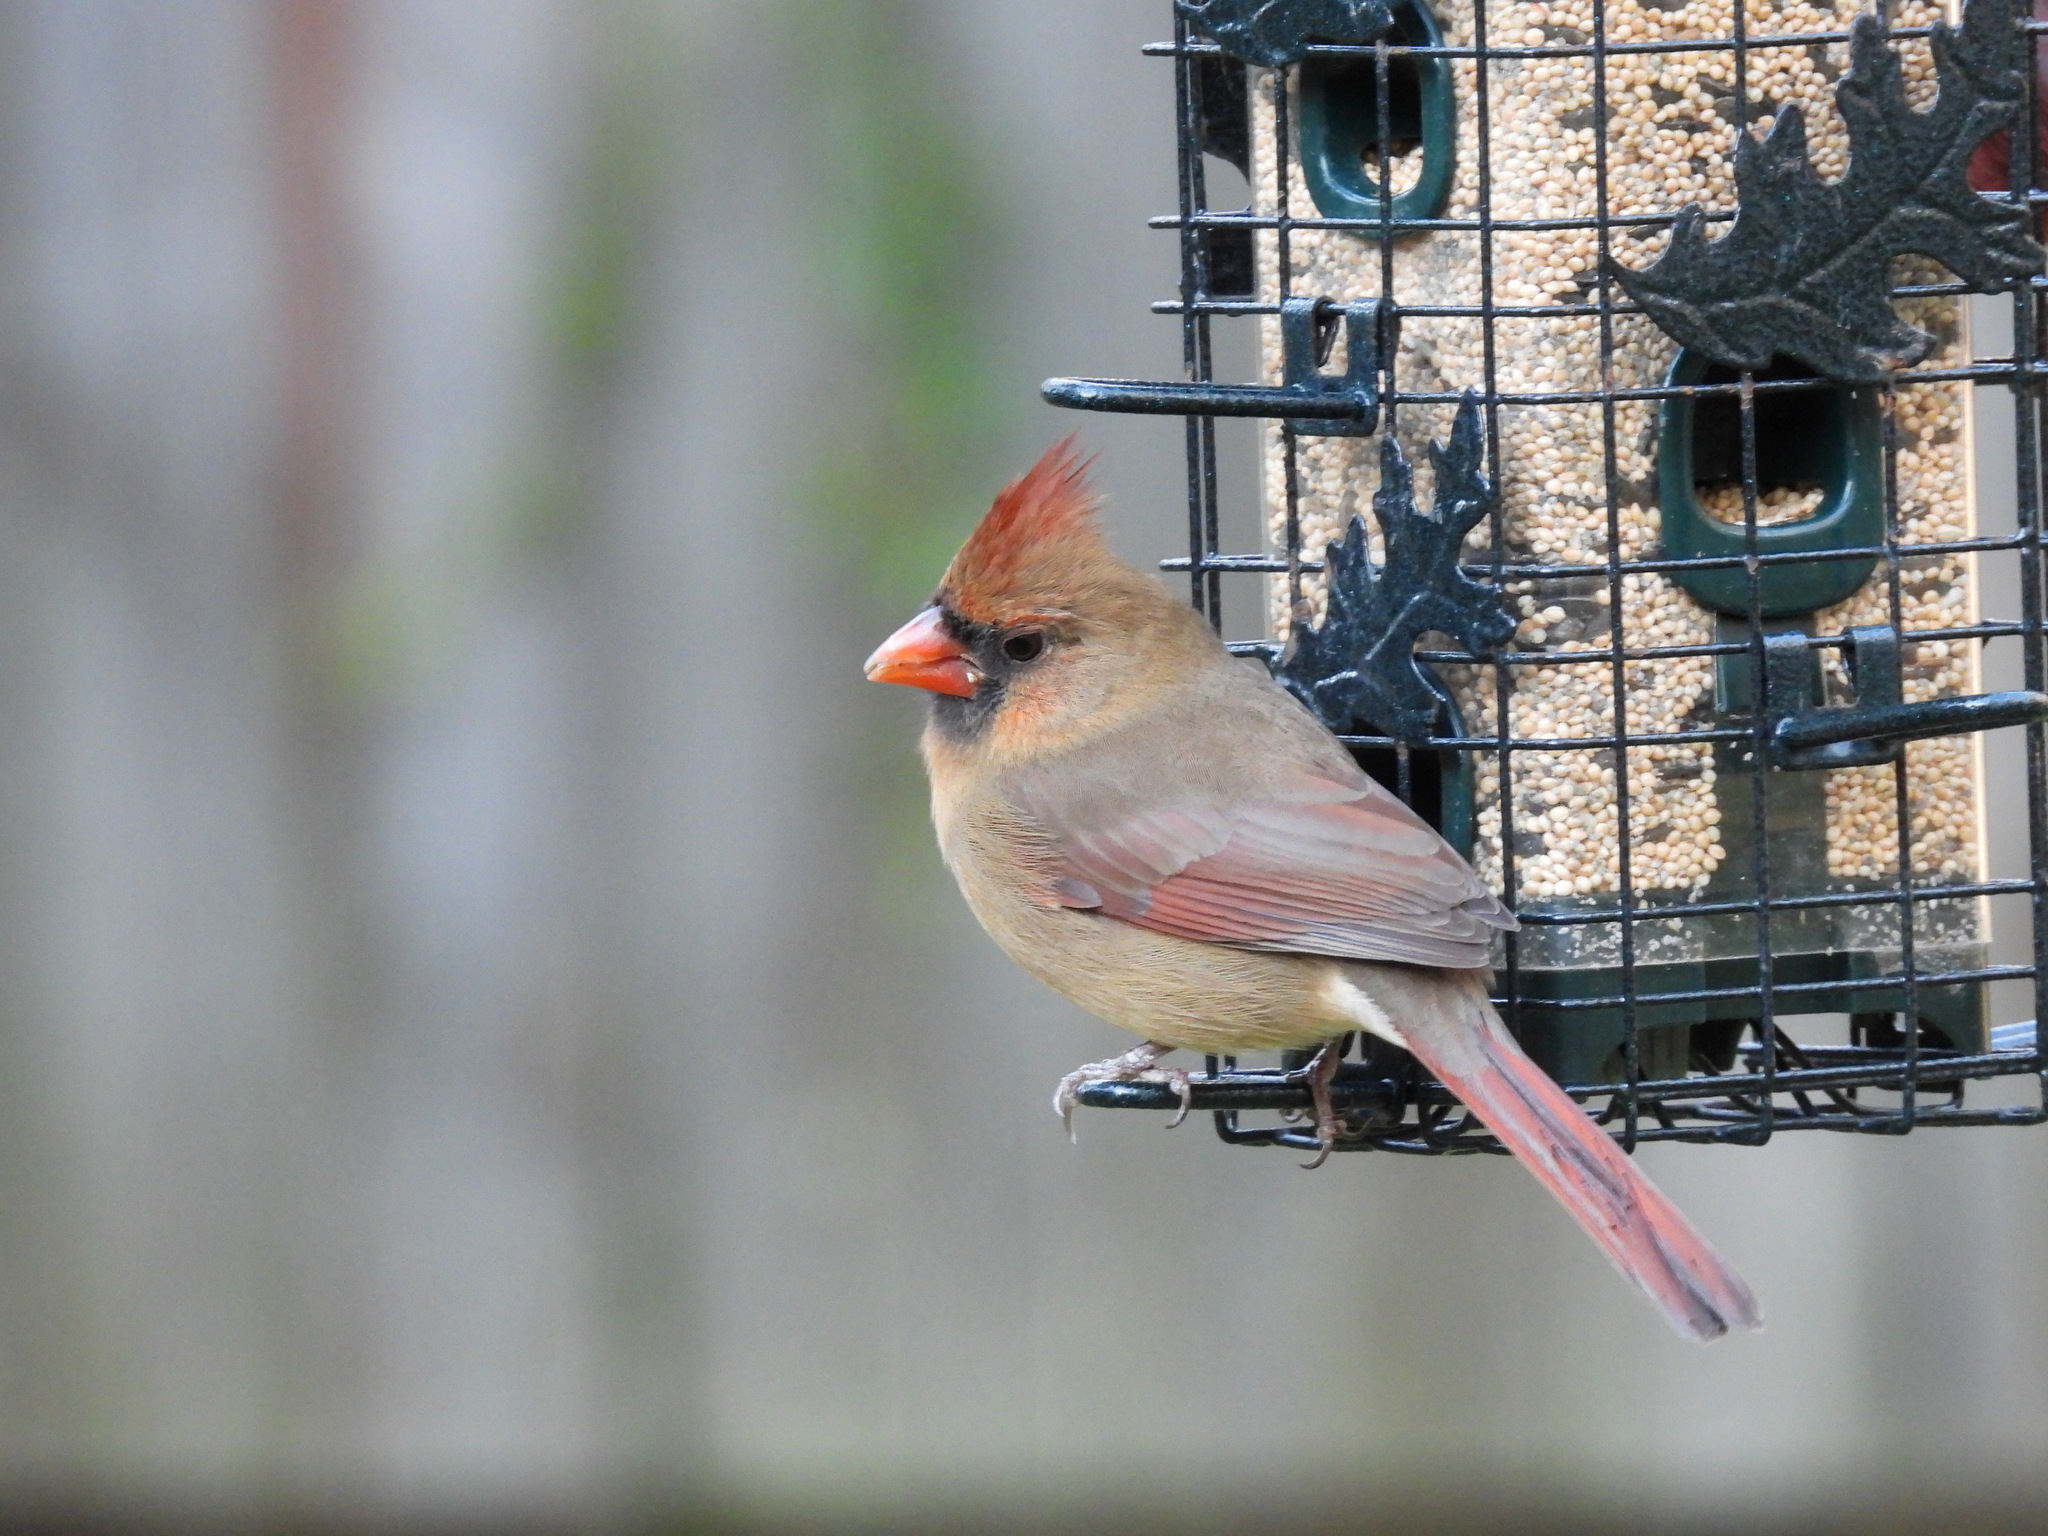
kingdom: Animalia
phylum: Chordata
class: Aves
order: Passeriformes
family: Cardinalidae
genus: Cardinalis
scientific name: Cardinalis cardinalis
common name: Northern cardinal
